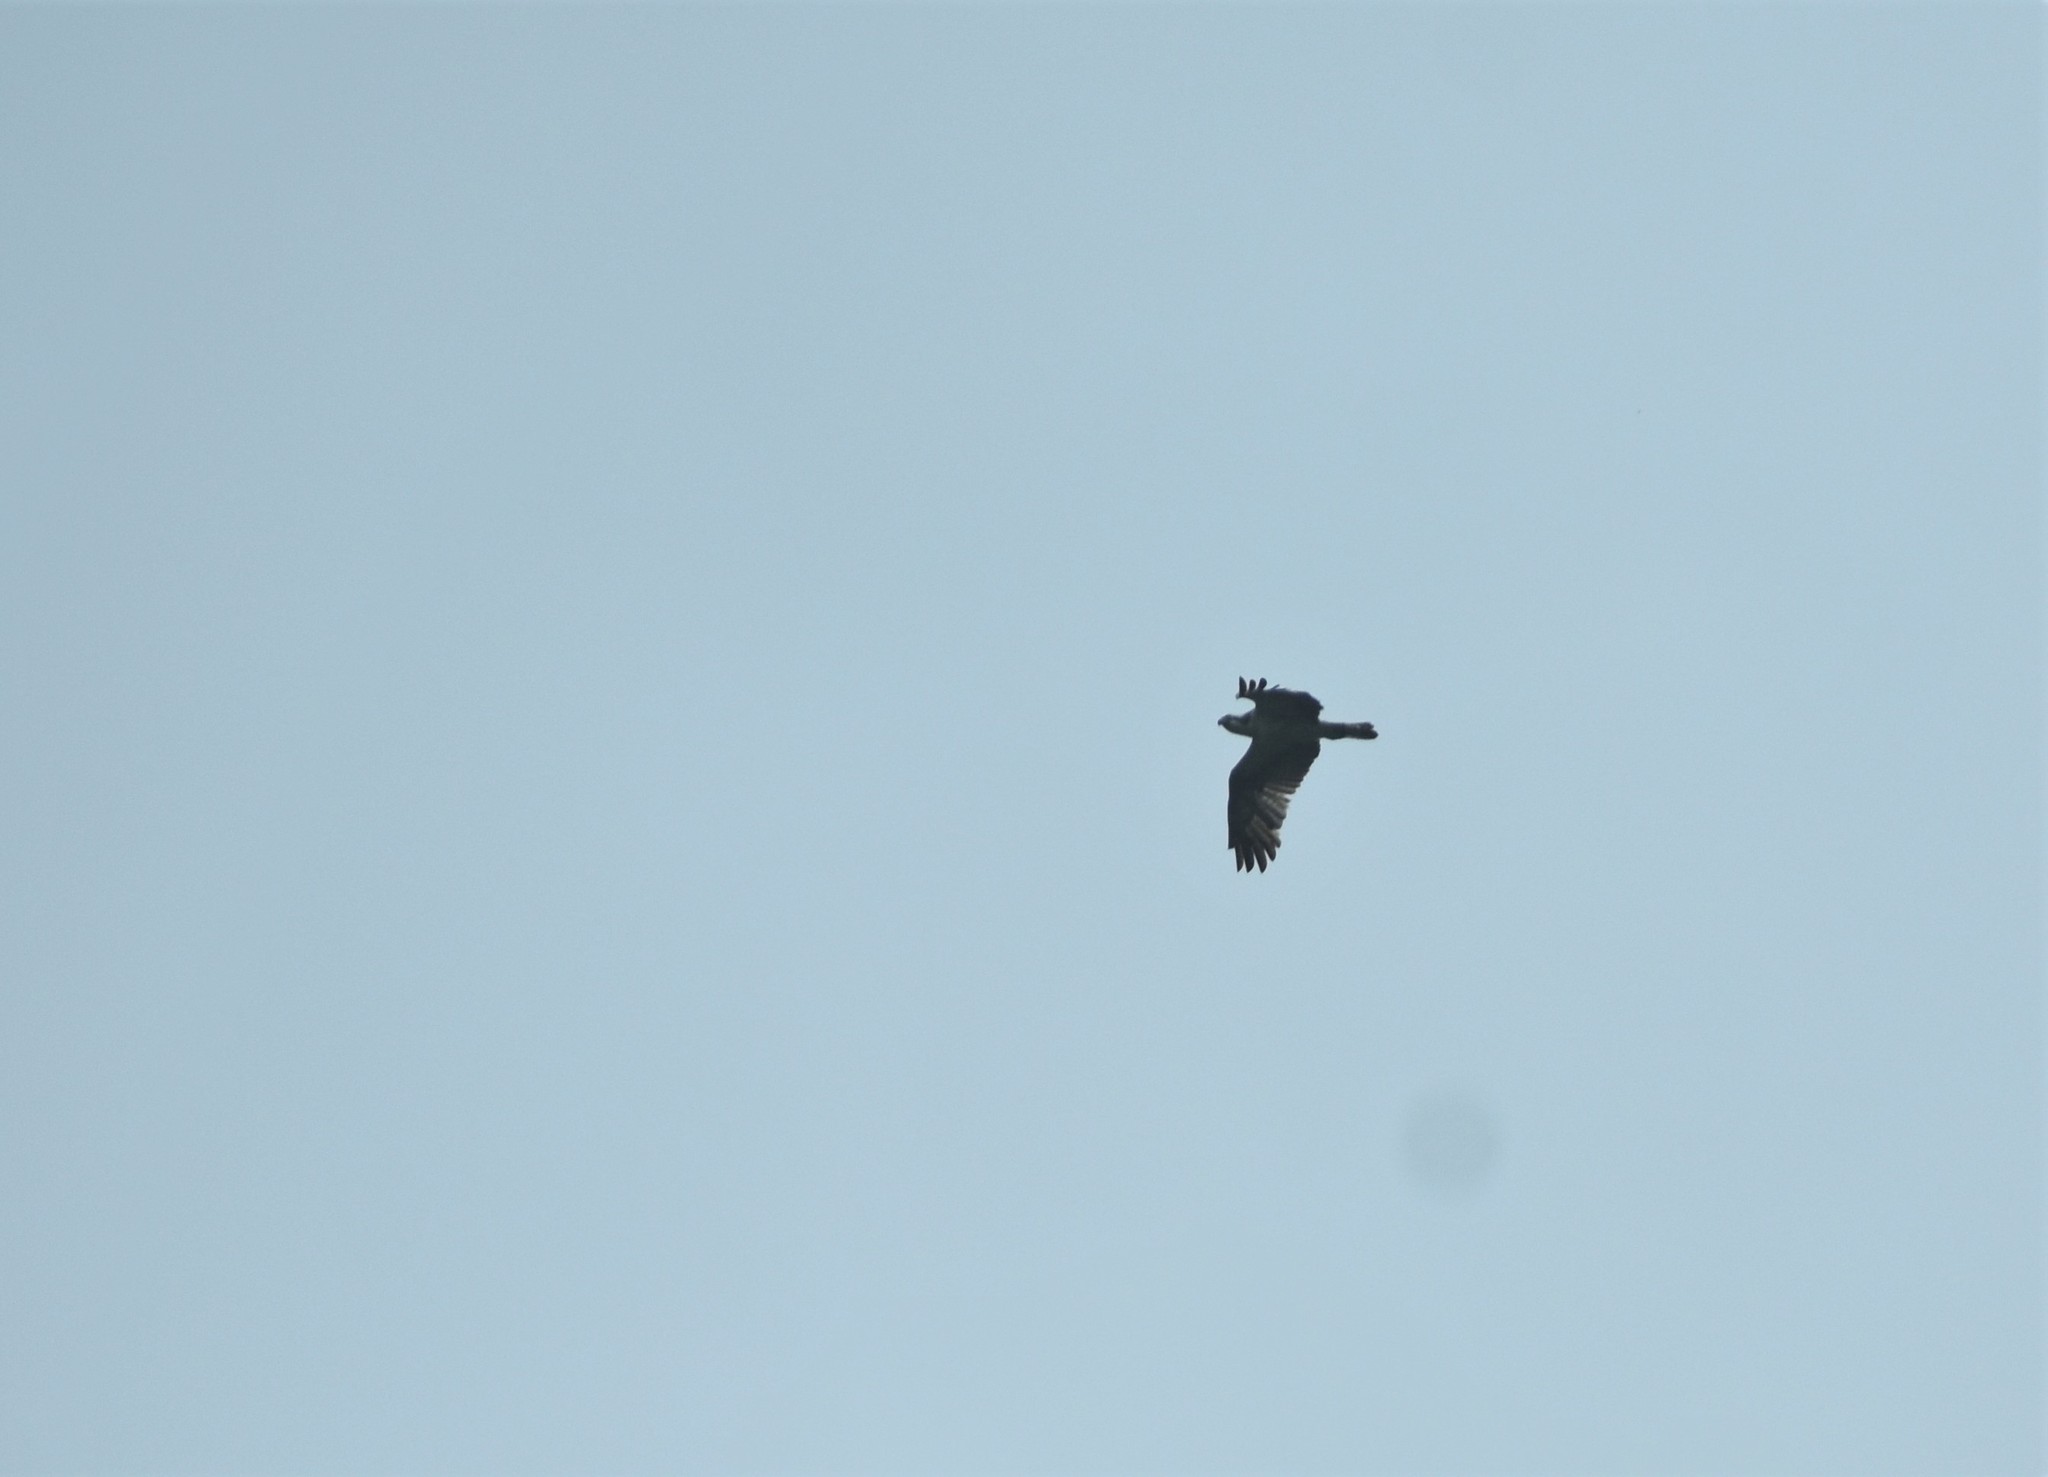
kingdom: Animalia
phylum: Chordata
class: Aves
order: Accipitriformes
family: Pandionidae
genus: Pandion
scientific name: Pandion haliaetus
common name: Osprey
